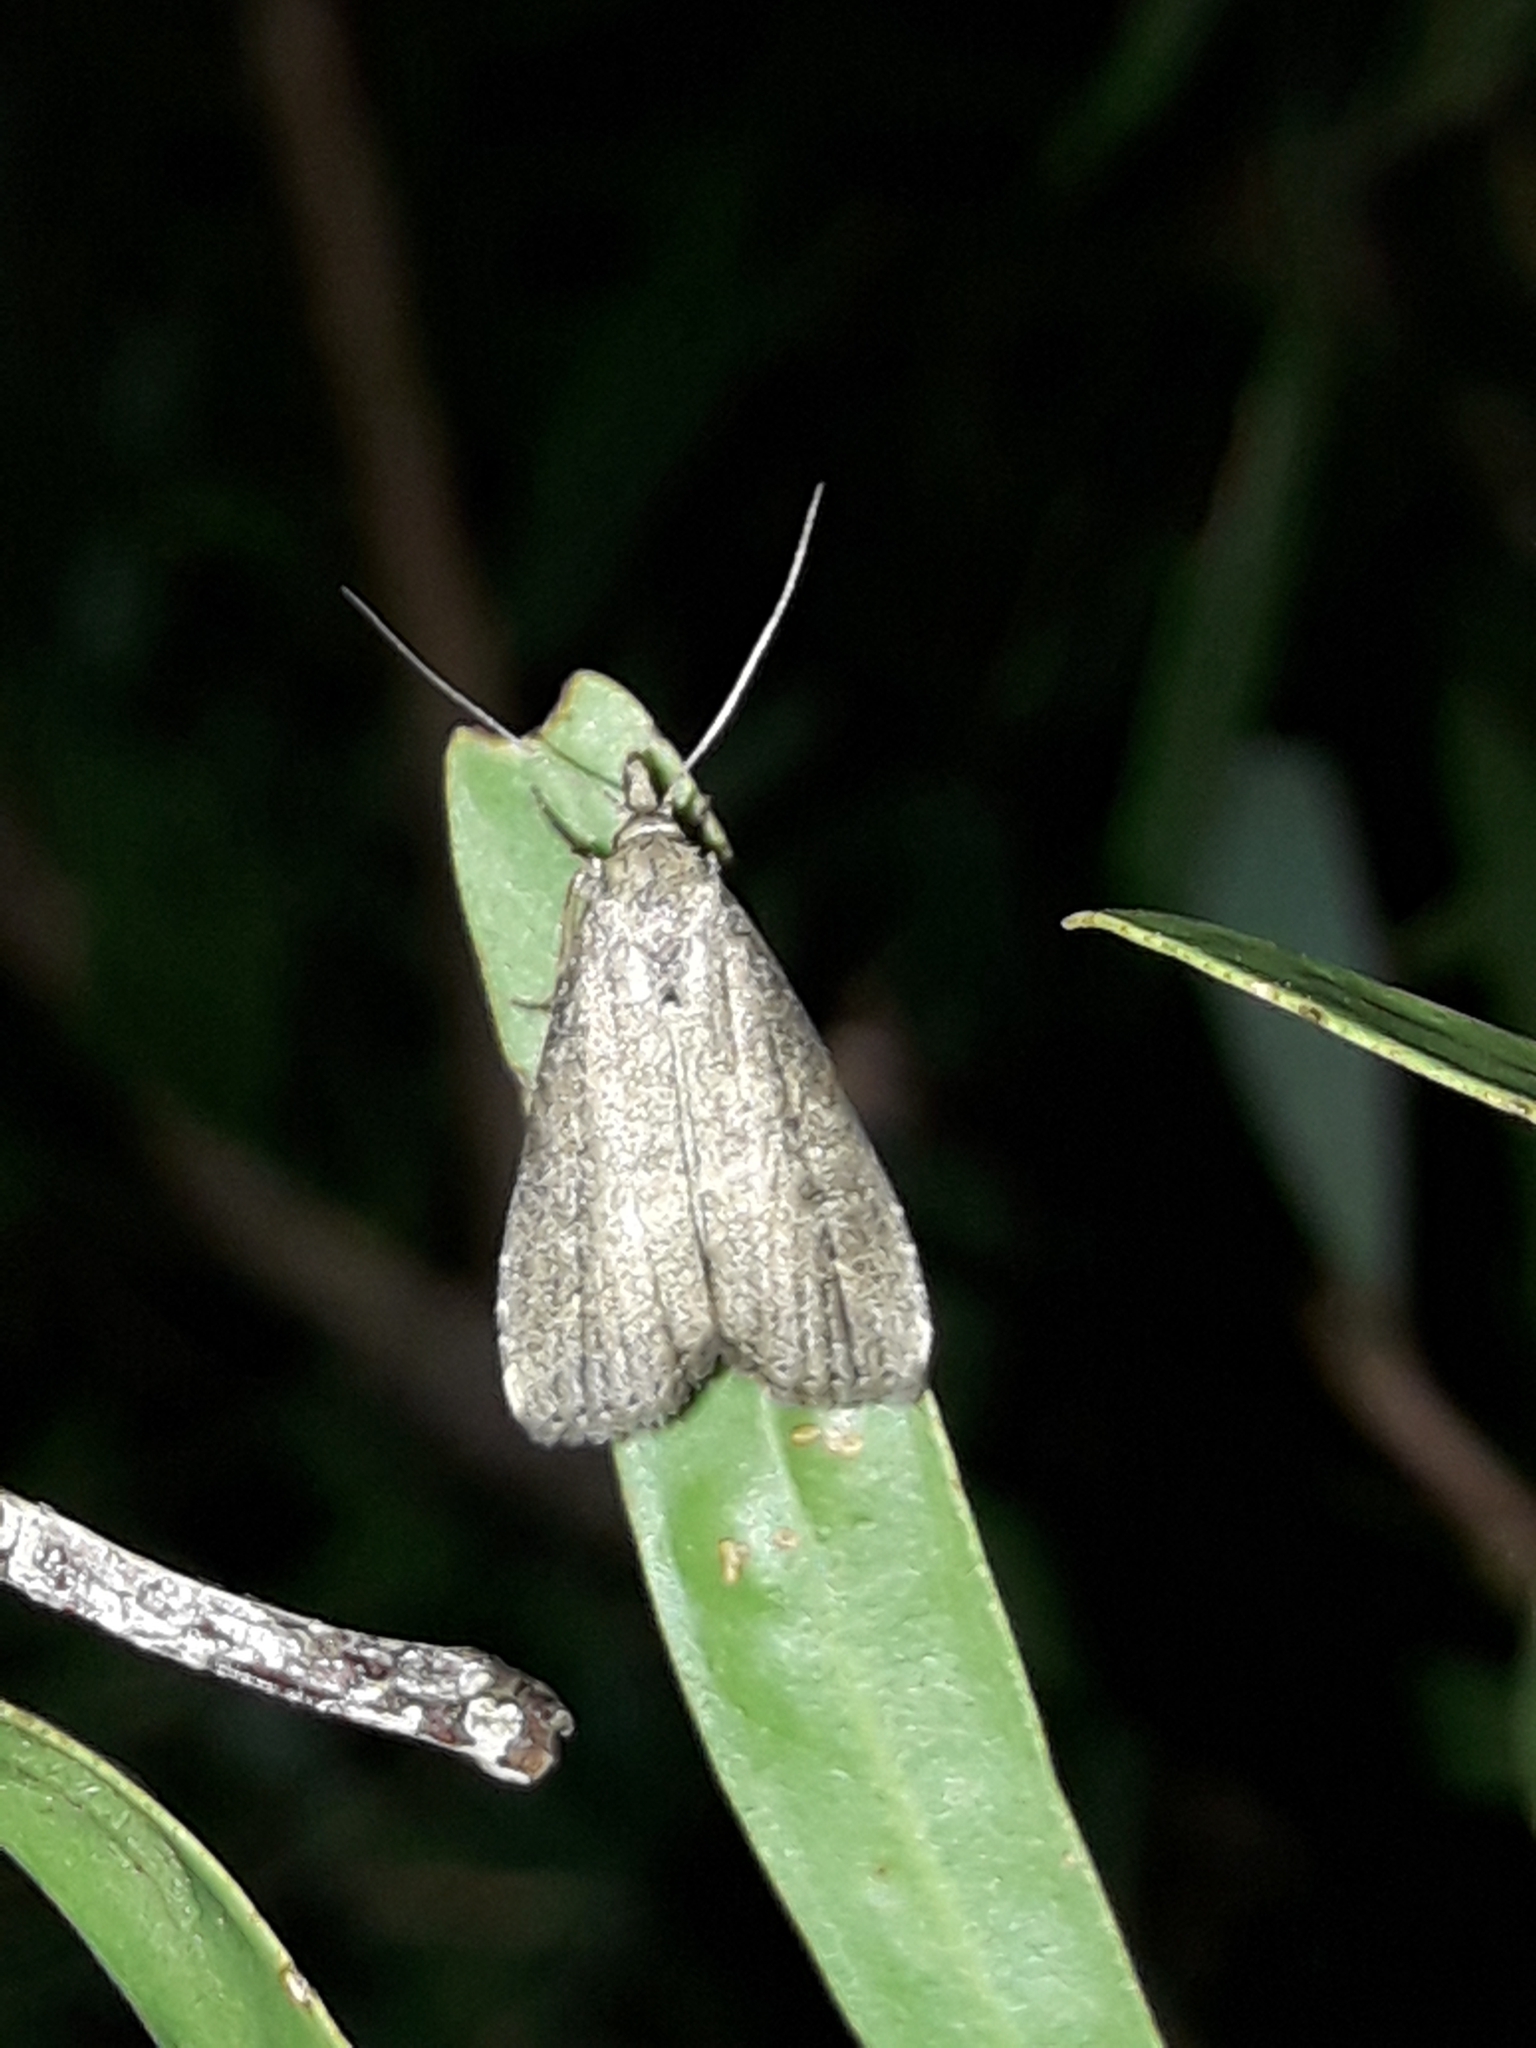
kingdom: Animalia
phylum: Arthropoda
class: Insecta
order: Lepidoptera
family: Erebidae
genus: Schrankia
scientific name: Schrankia costaestrigalis
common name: Pinion-streaked snout
